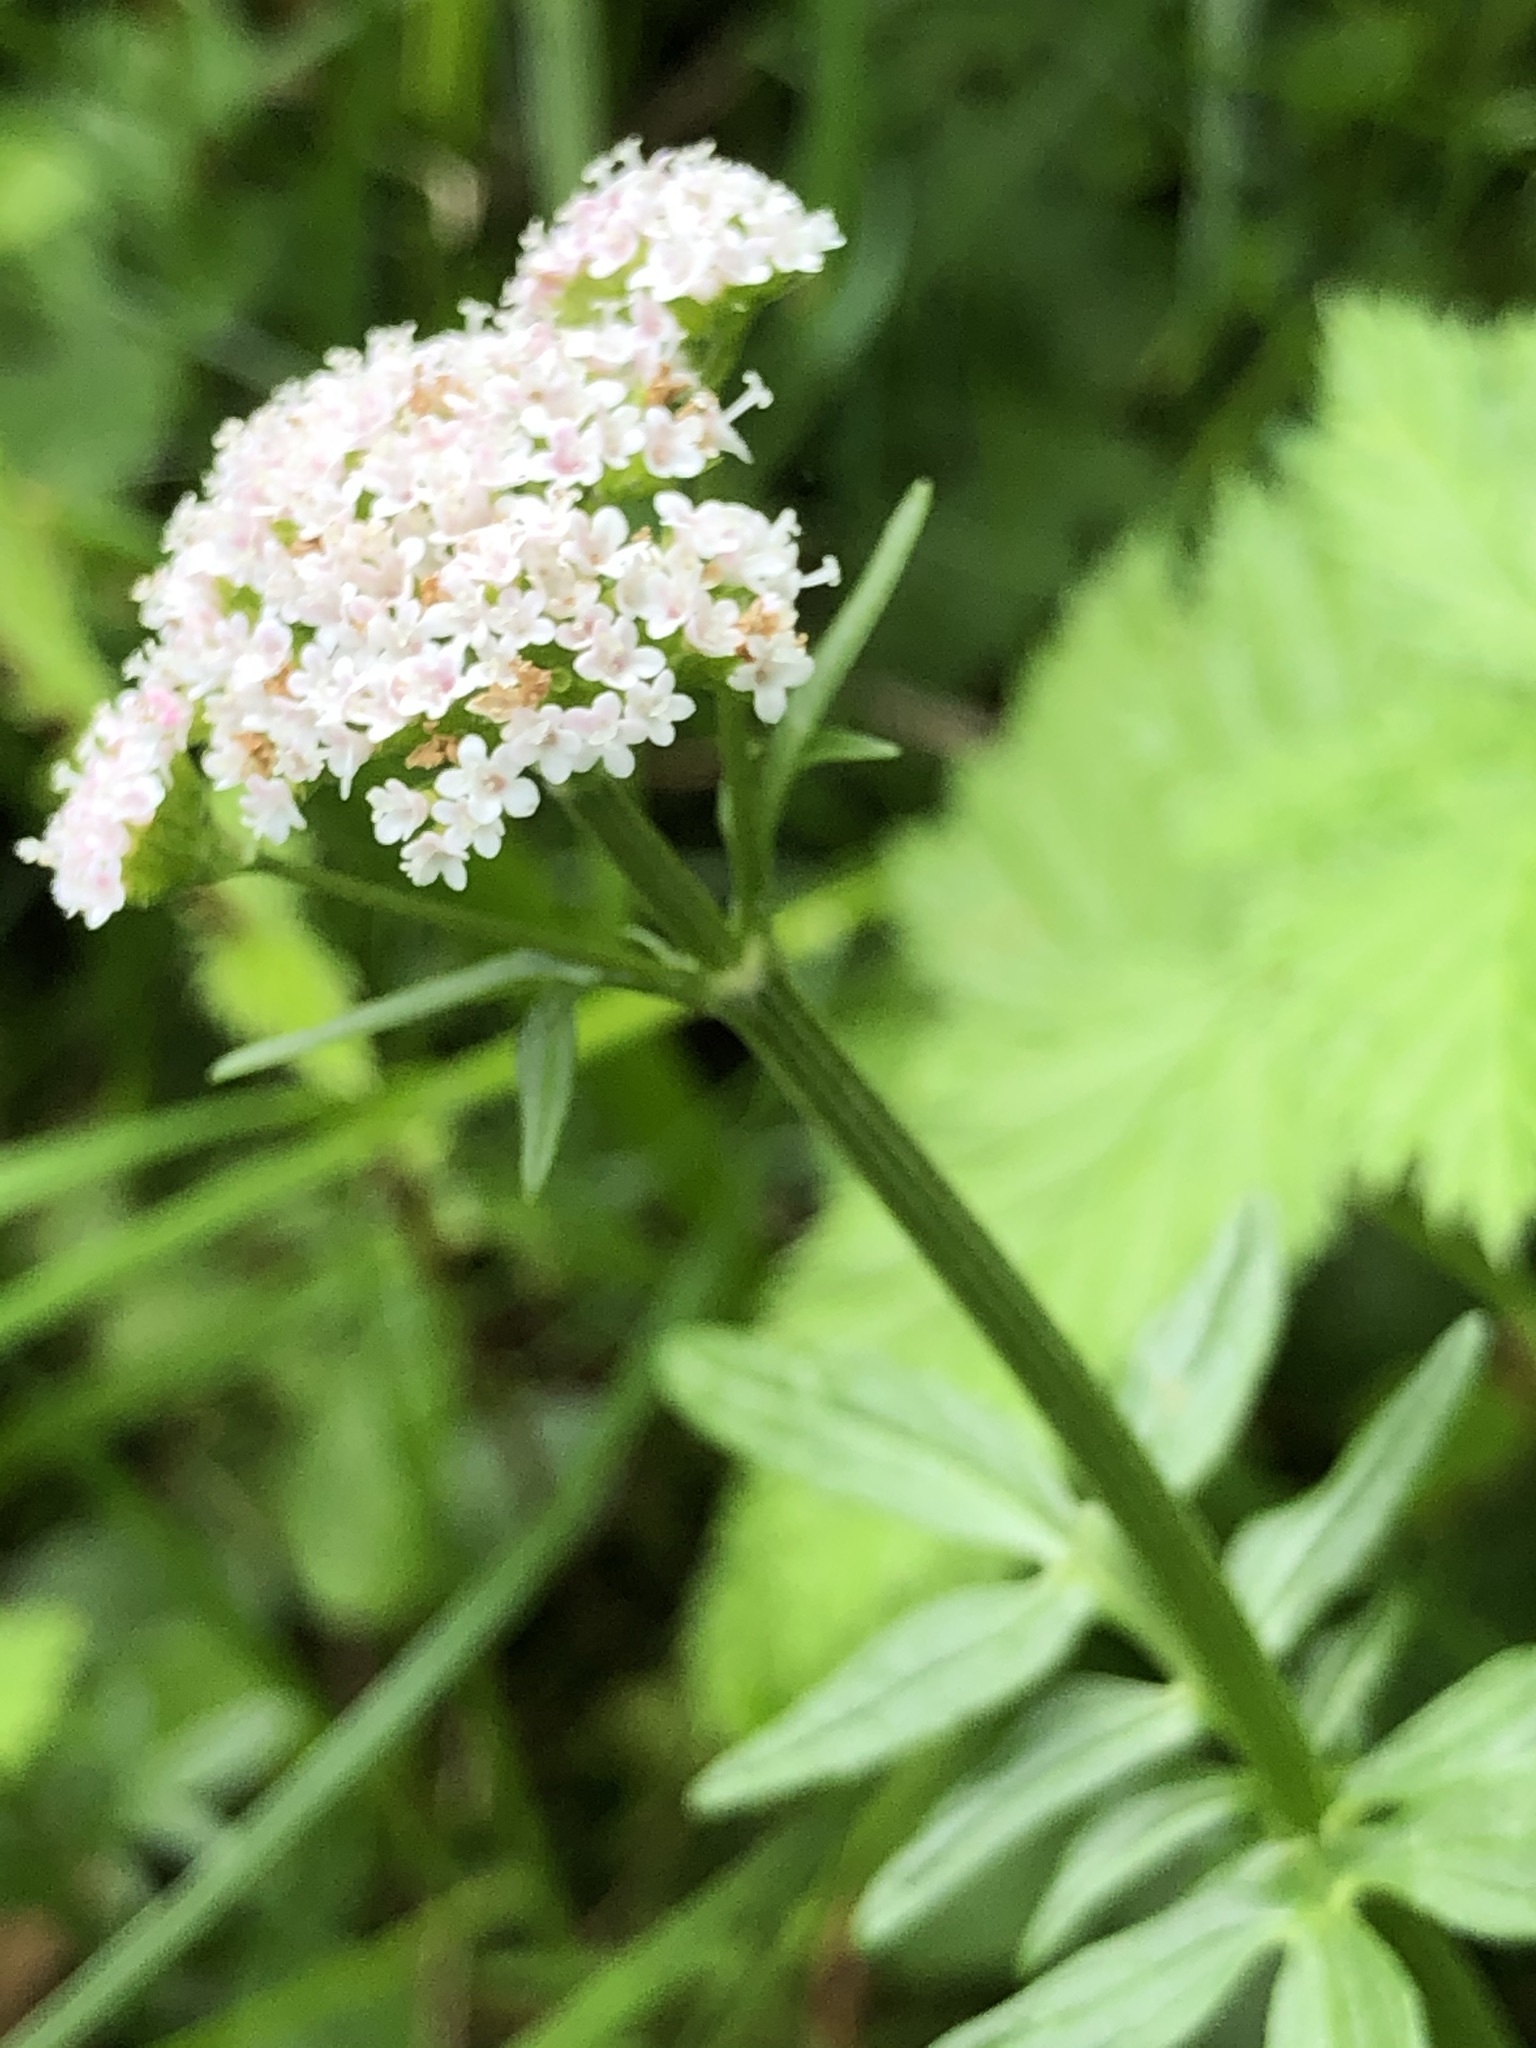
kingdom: Plantae
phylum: Tracheophyta
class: Magnoliopsida
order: Dipsacales
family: Caprifoliaceae
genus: Valeriana
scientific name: Valeriana dioica
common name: Marsh valerian
